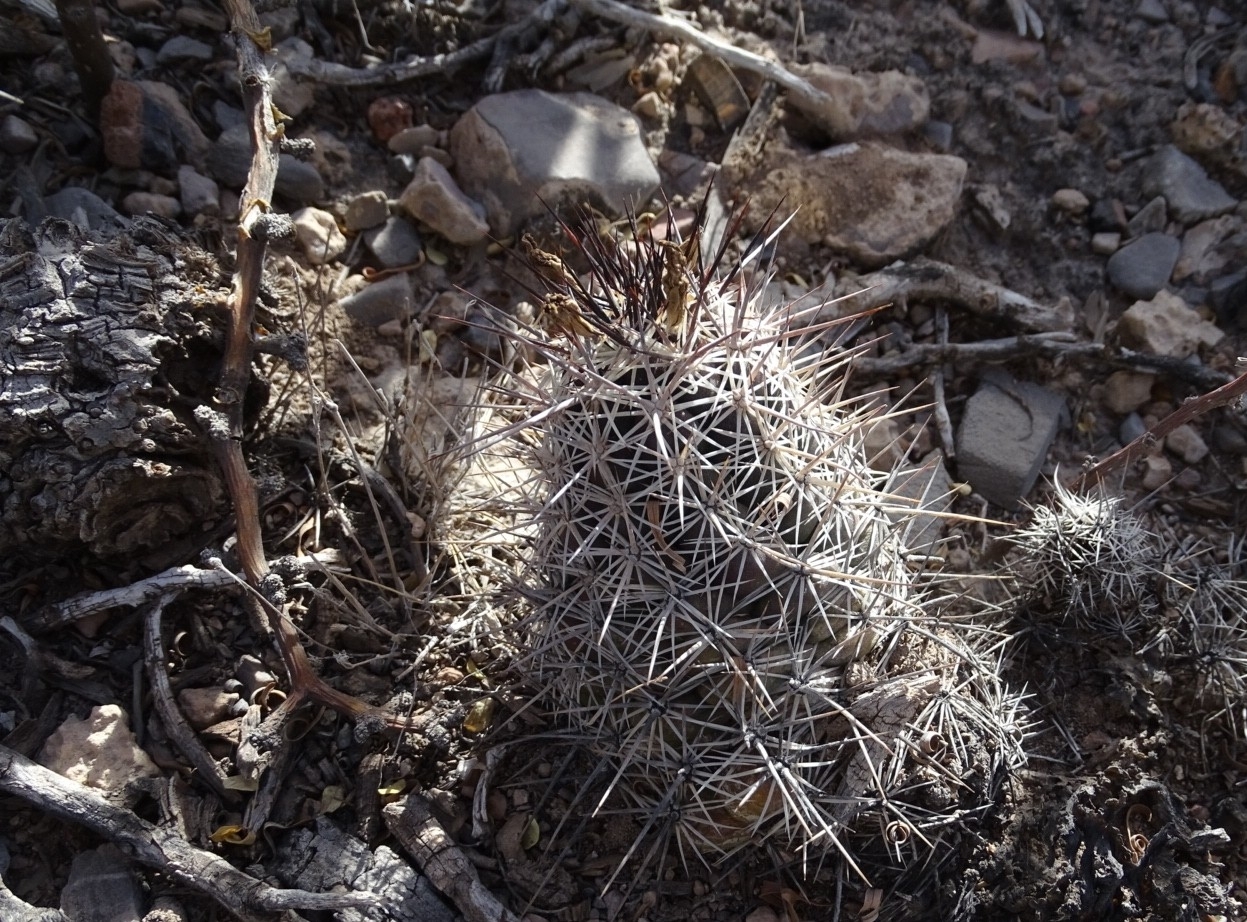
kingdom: Plantae
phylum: Tracheophyta
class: Magnoliopsida
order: Caryophyllales
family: Cactaceae
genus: Cochemiea
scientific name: Cochemiea conoidea
